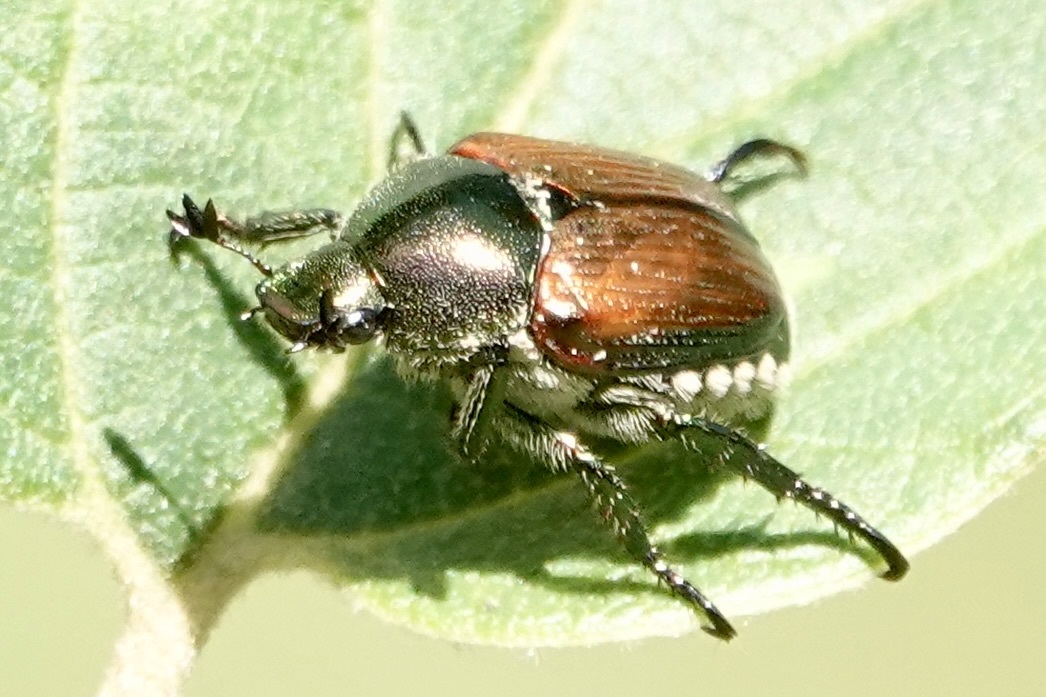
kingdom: Animalia
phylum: Arthropoda
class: Insecta
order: Coleoptera
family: Scarabaeidae
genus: Popillia
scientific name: Popillia japonica
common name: Japanese beetle
